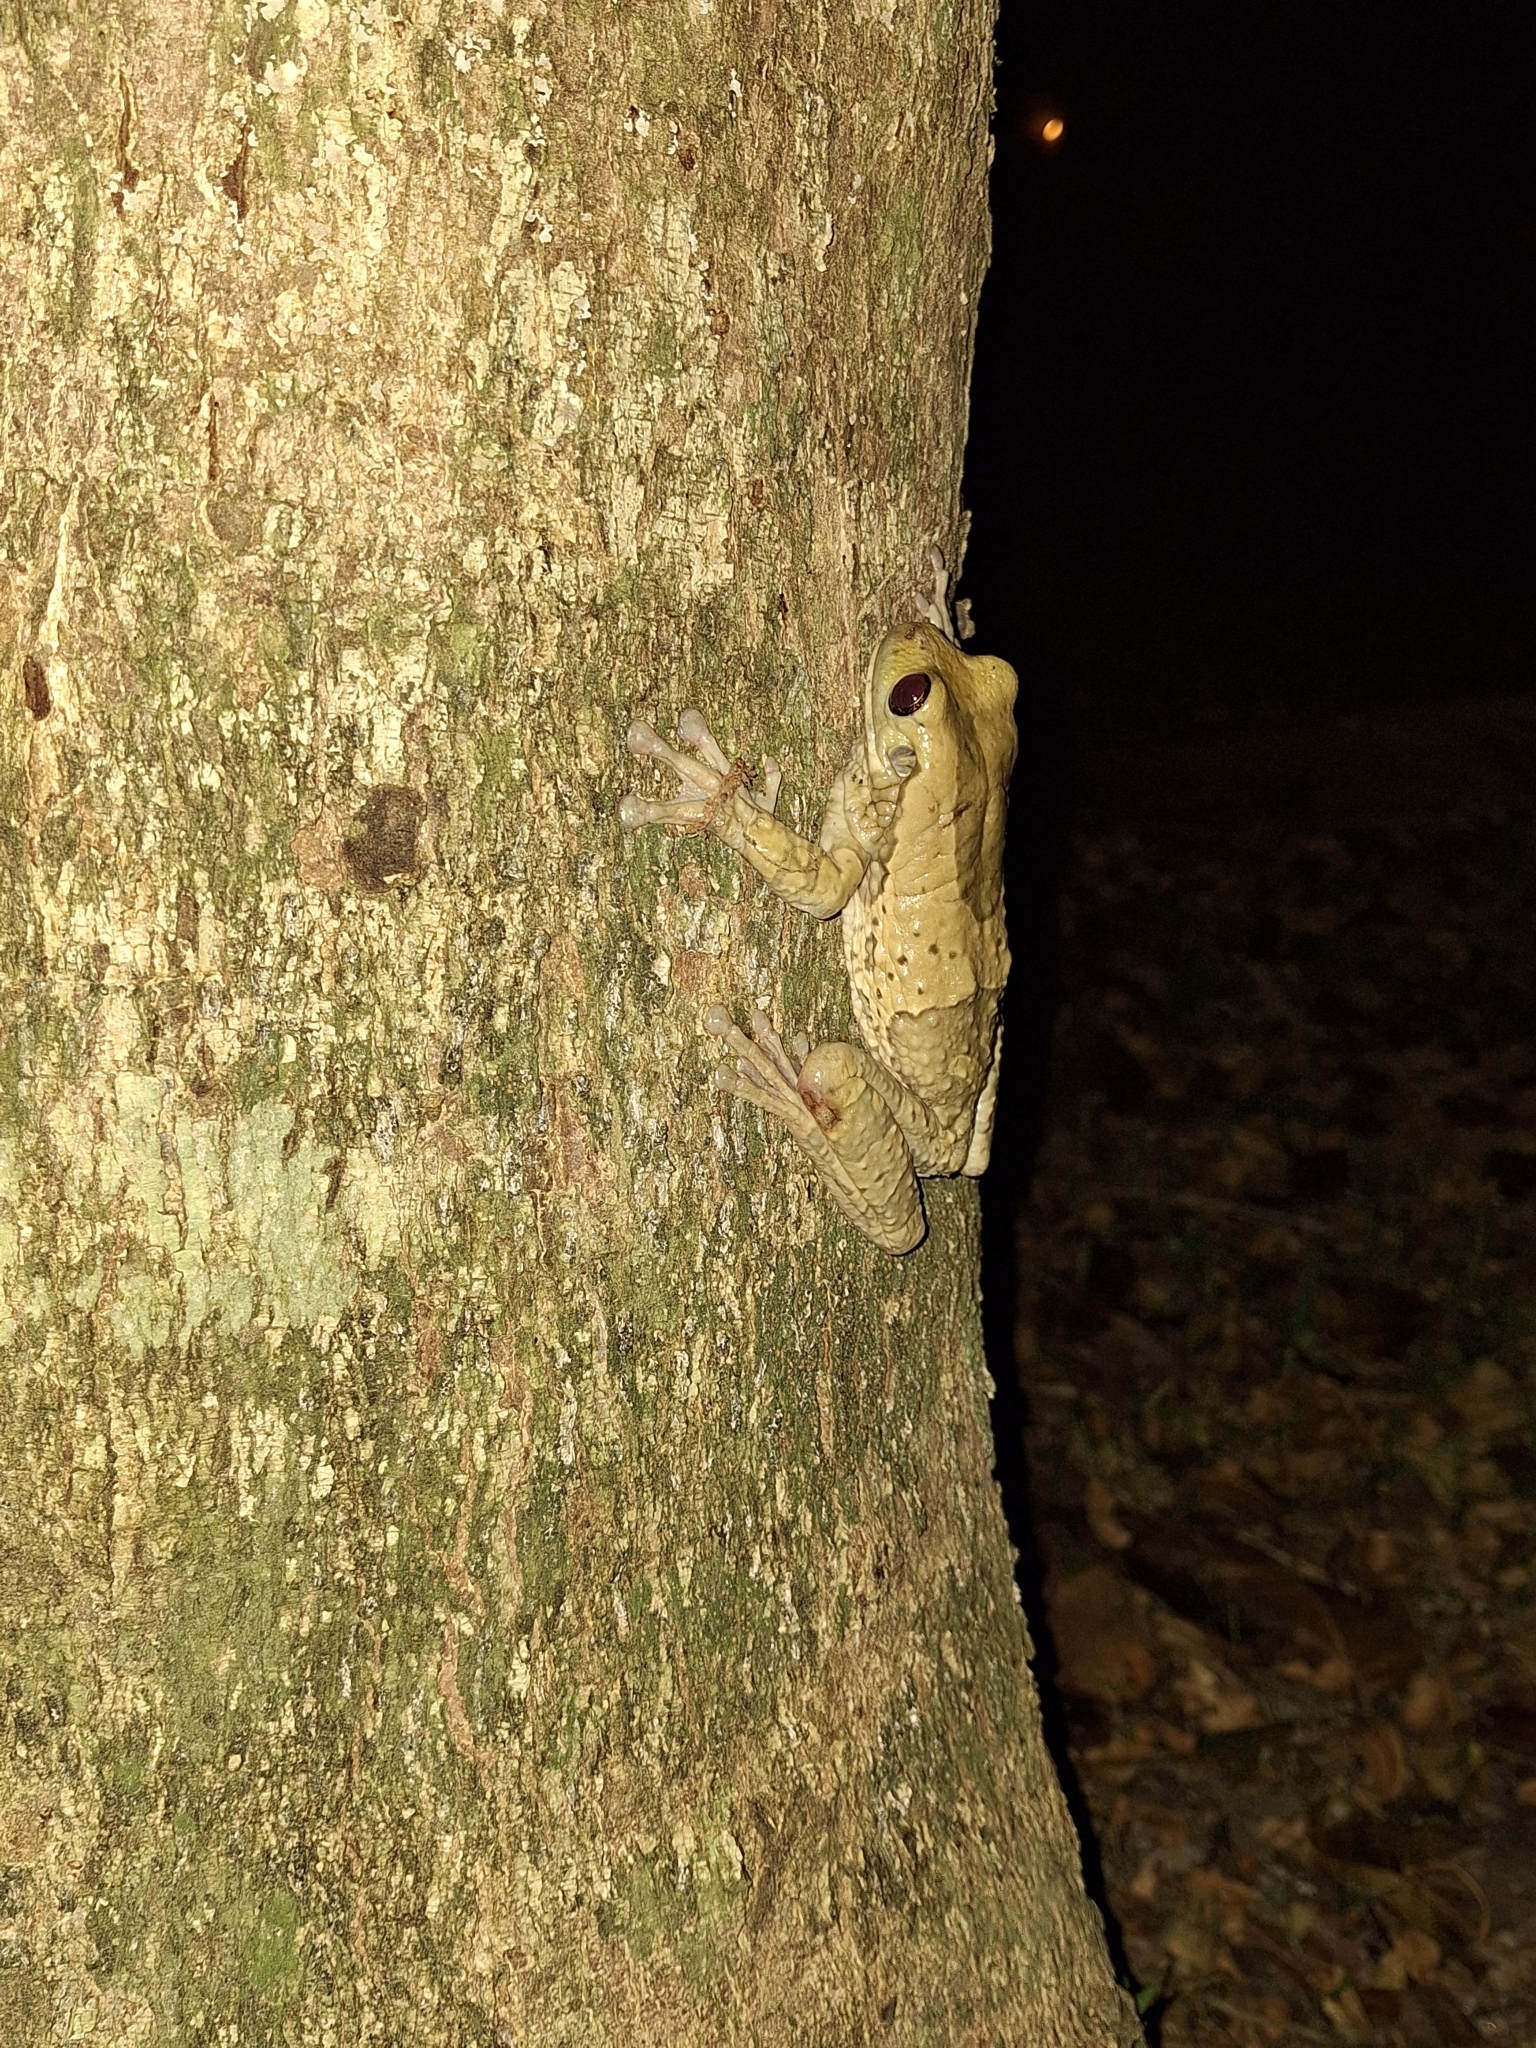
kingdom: Animalia
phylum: Chordata
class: Amphibia
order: Anura
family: Hylidae
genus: Trachycephalus
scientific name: Trachycephalus vermiculatus
